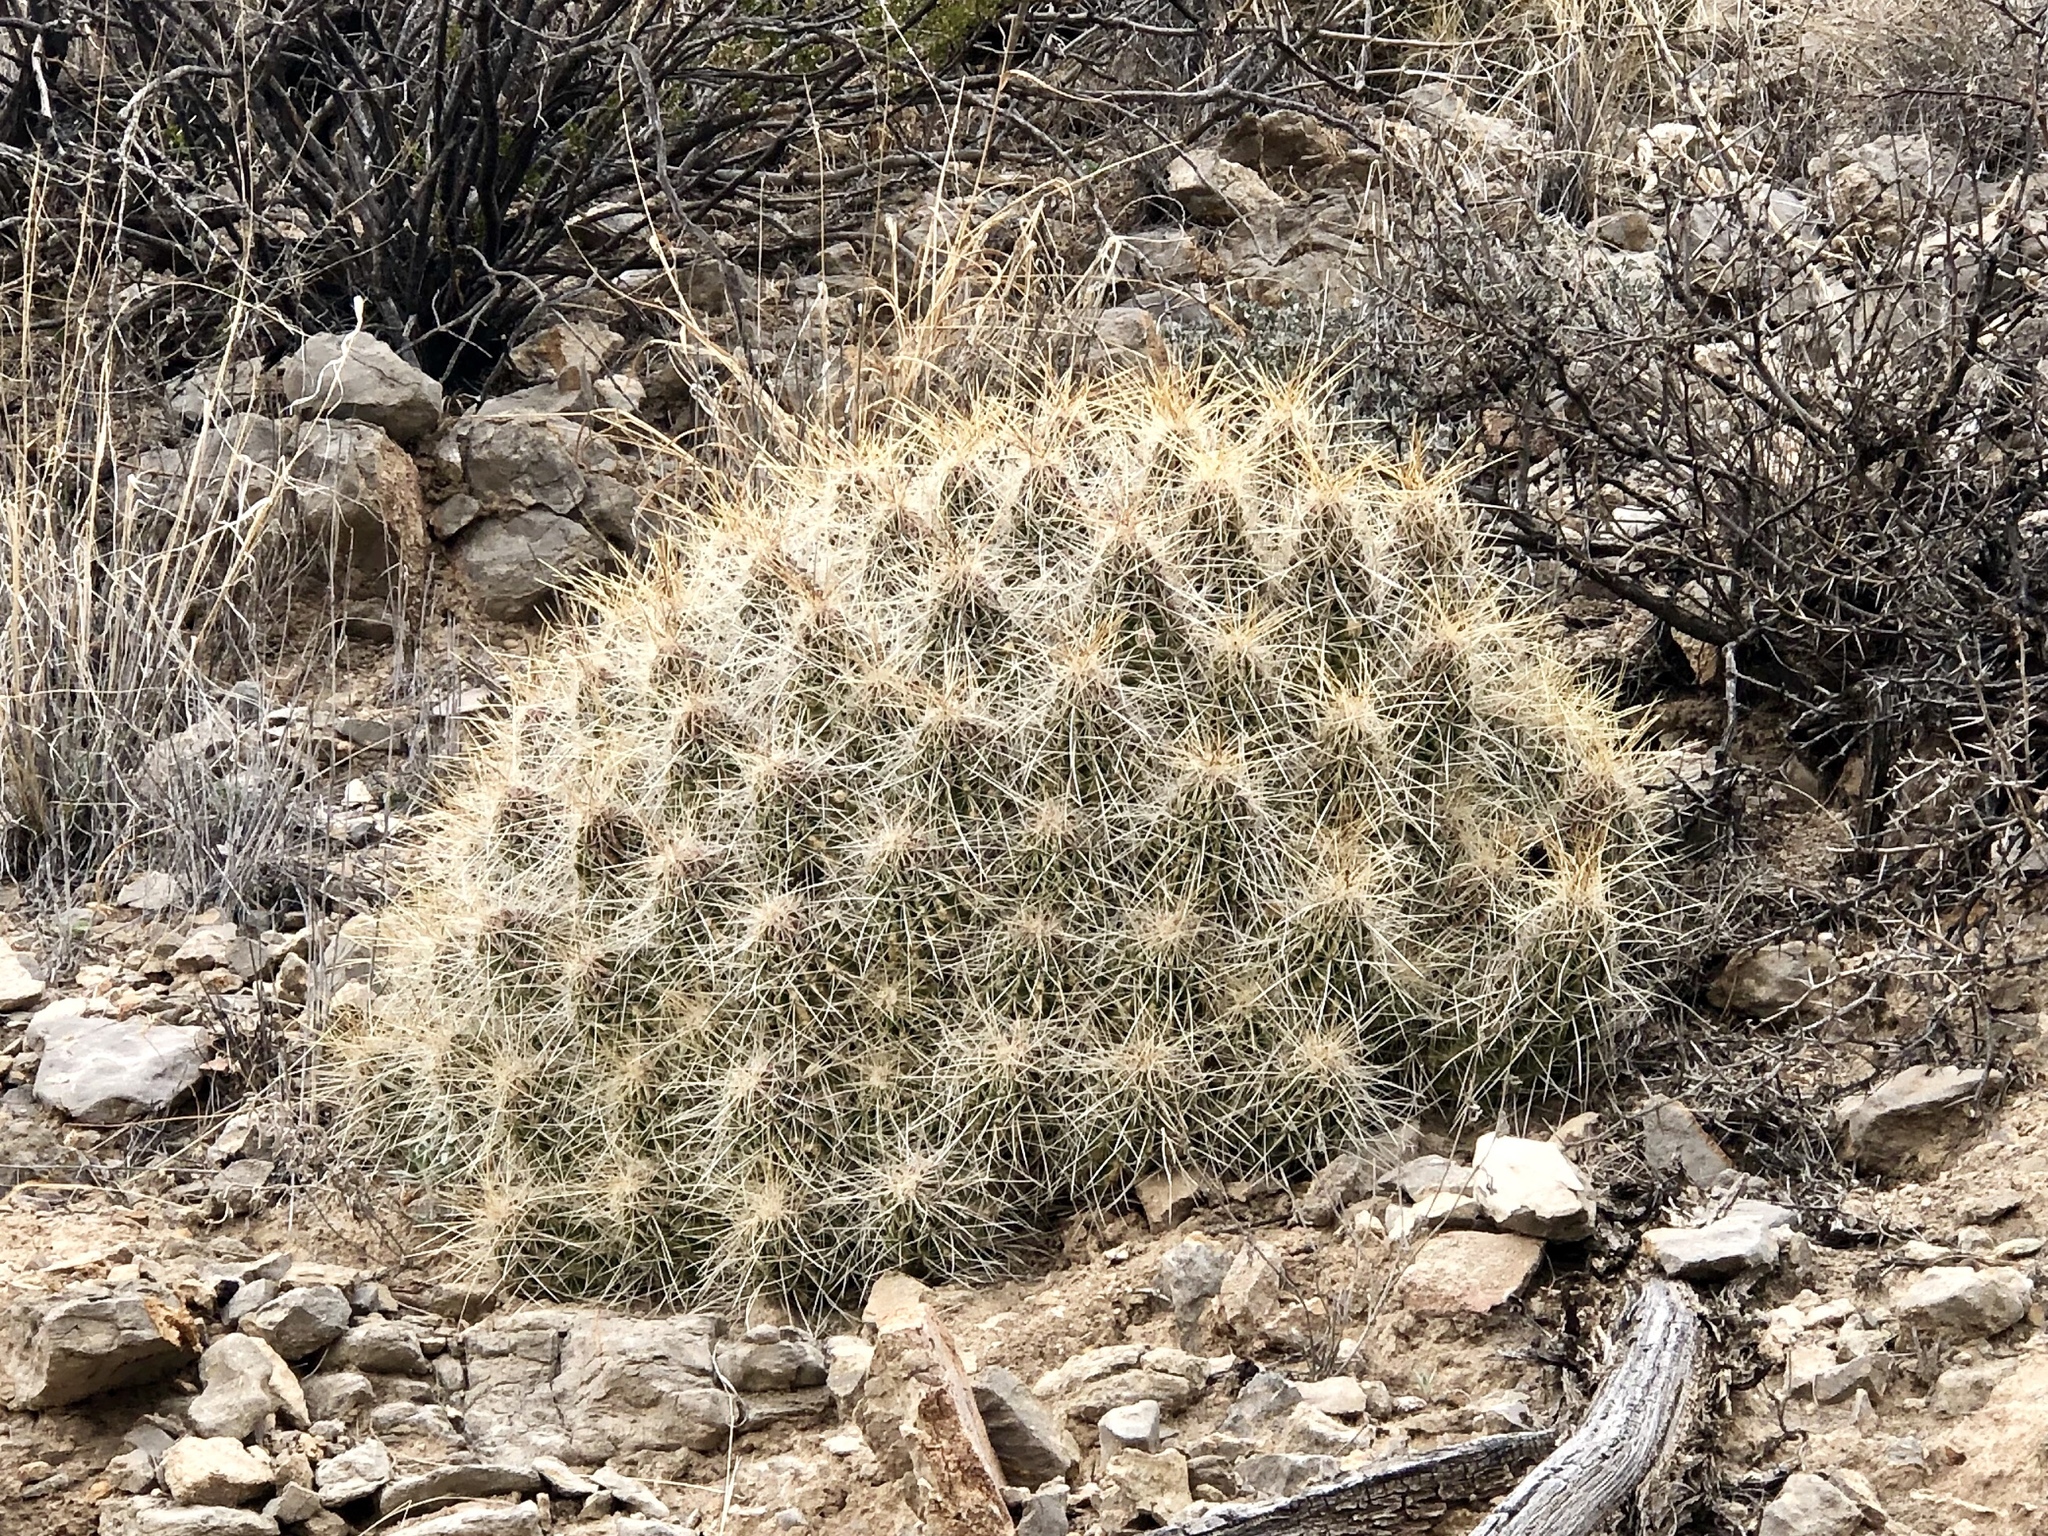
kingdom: Plantae
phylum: Tracheophyta
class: Magnoliopsida
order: Caryophyllales
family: Cactaceae
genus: Echinocereus
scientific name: Echinocereus stramineus
